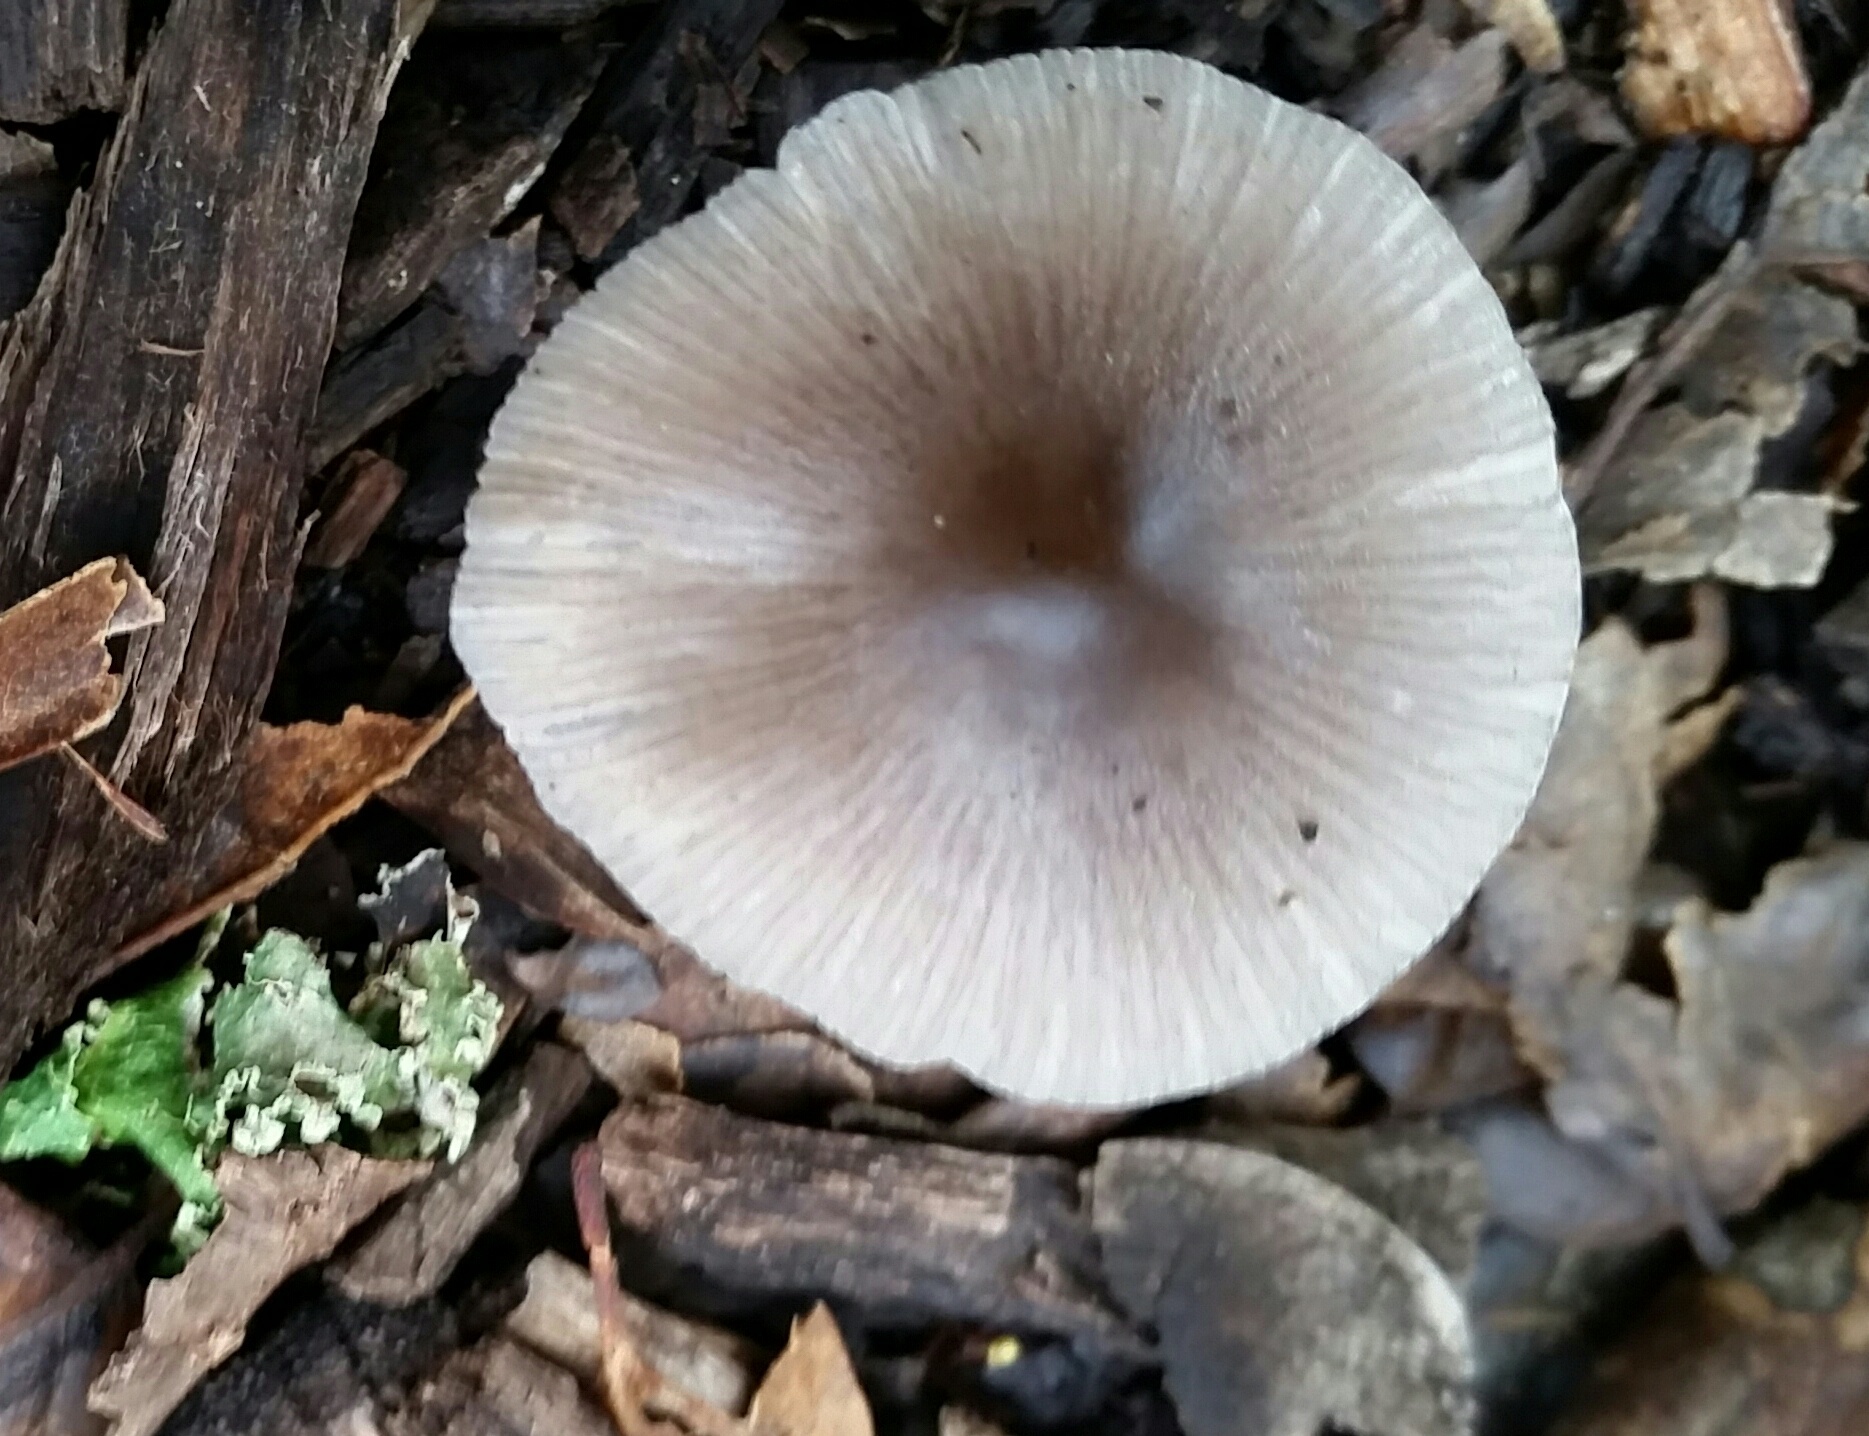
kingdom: Fungi
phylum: Basidiomycota
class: Agaricomycetes
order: Agaricales
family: Bolbitiaceae
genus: Bolbitius
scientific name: Bolbitius reticulatus
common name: Netted fieldcap
